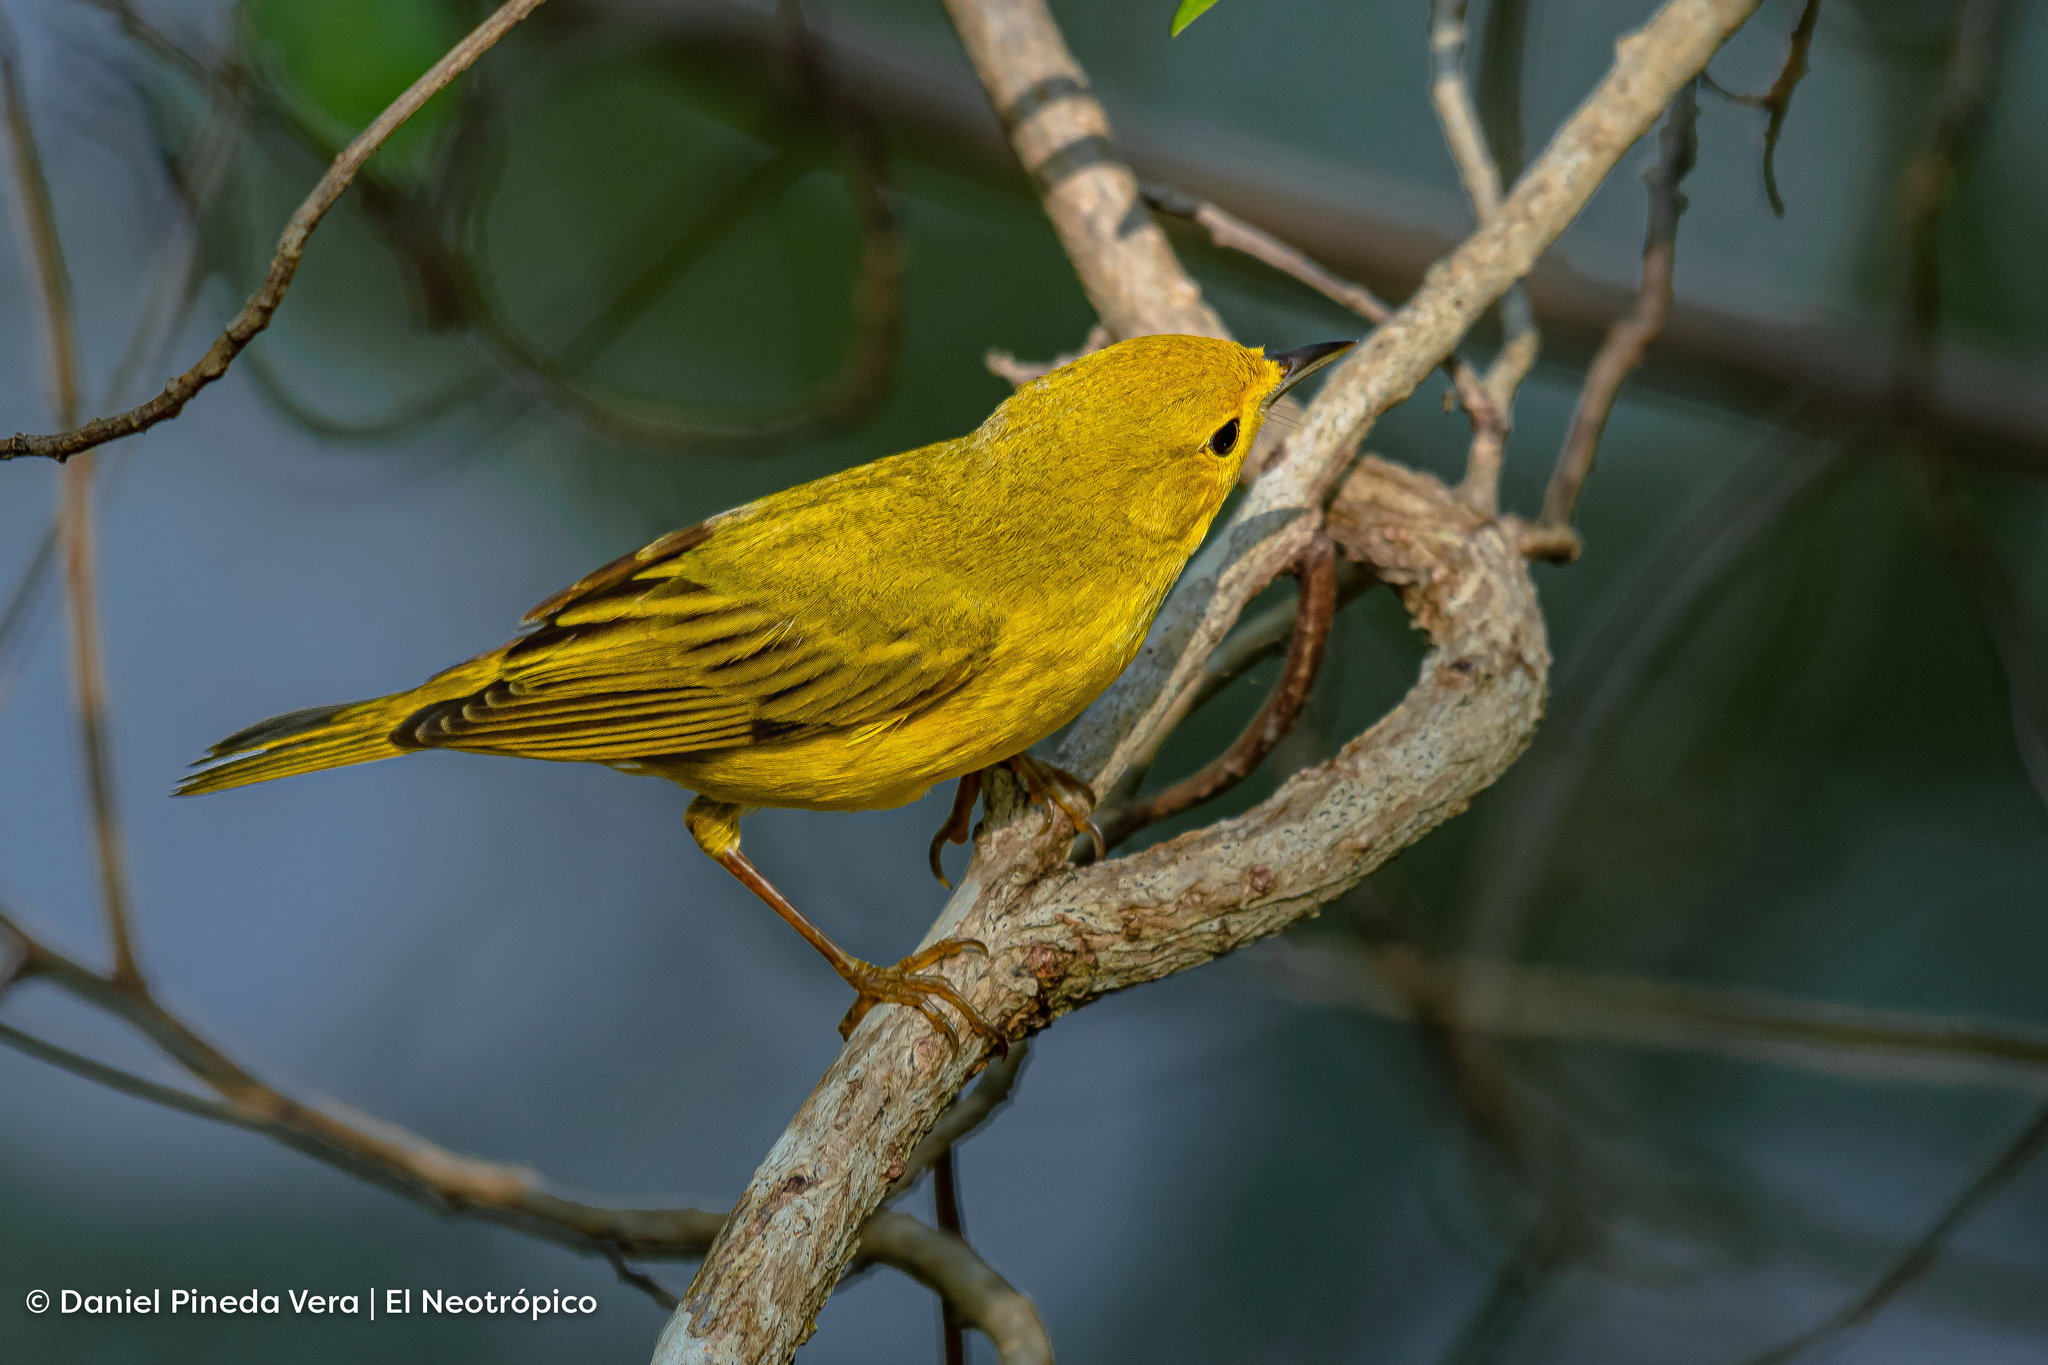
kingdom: Animalia
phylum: Chordata
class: Aves
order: Passeriformes
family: Parulidae
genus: Setophaga
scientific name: Setophaga petechia
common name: Yellow warbler
